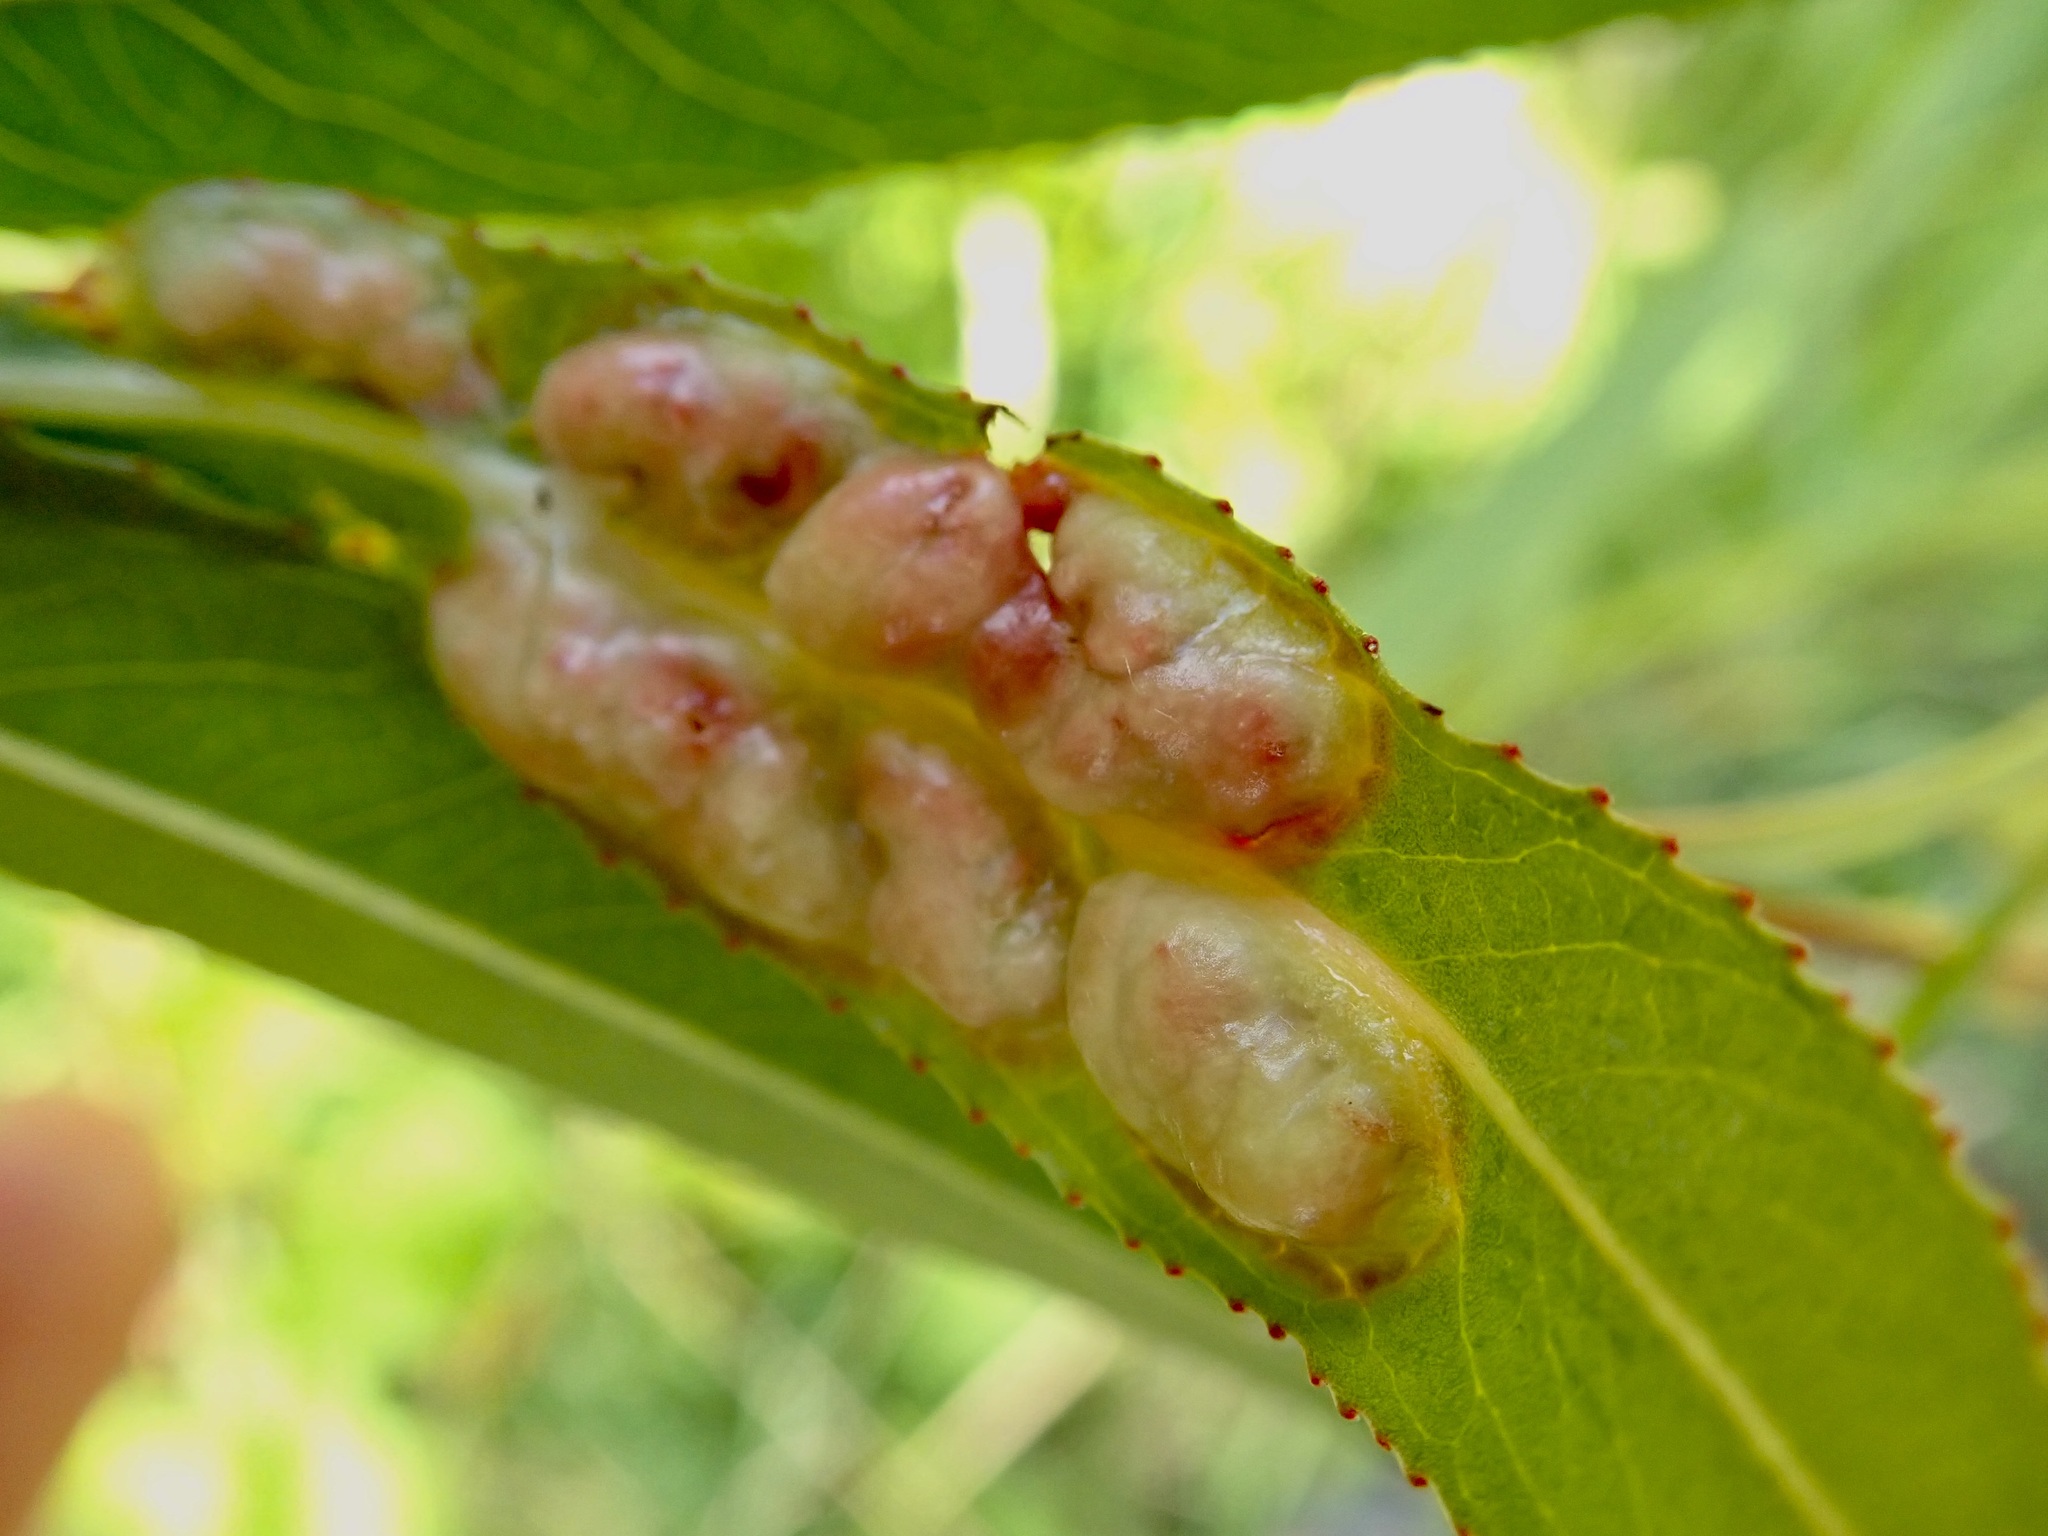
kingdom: Animalia
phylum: Arthropoda
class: Insecta
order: Hymenoptera
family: Tenthredinidae
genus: Pontania
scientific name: Pontania proxima
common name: Common sawfly
